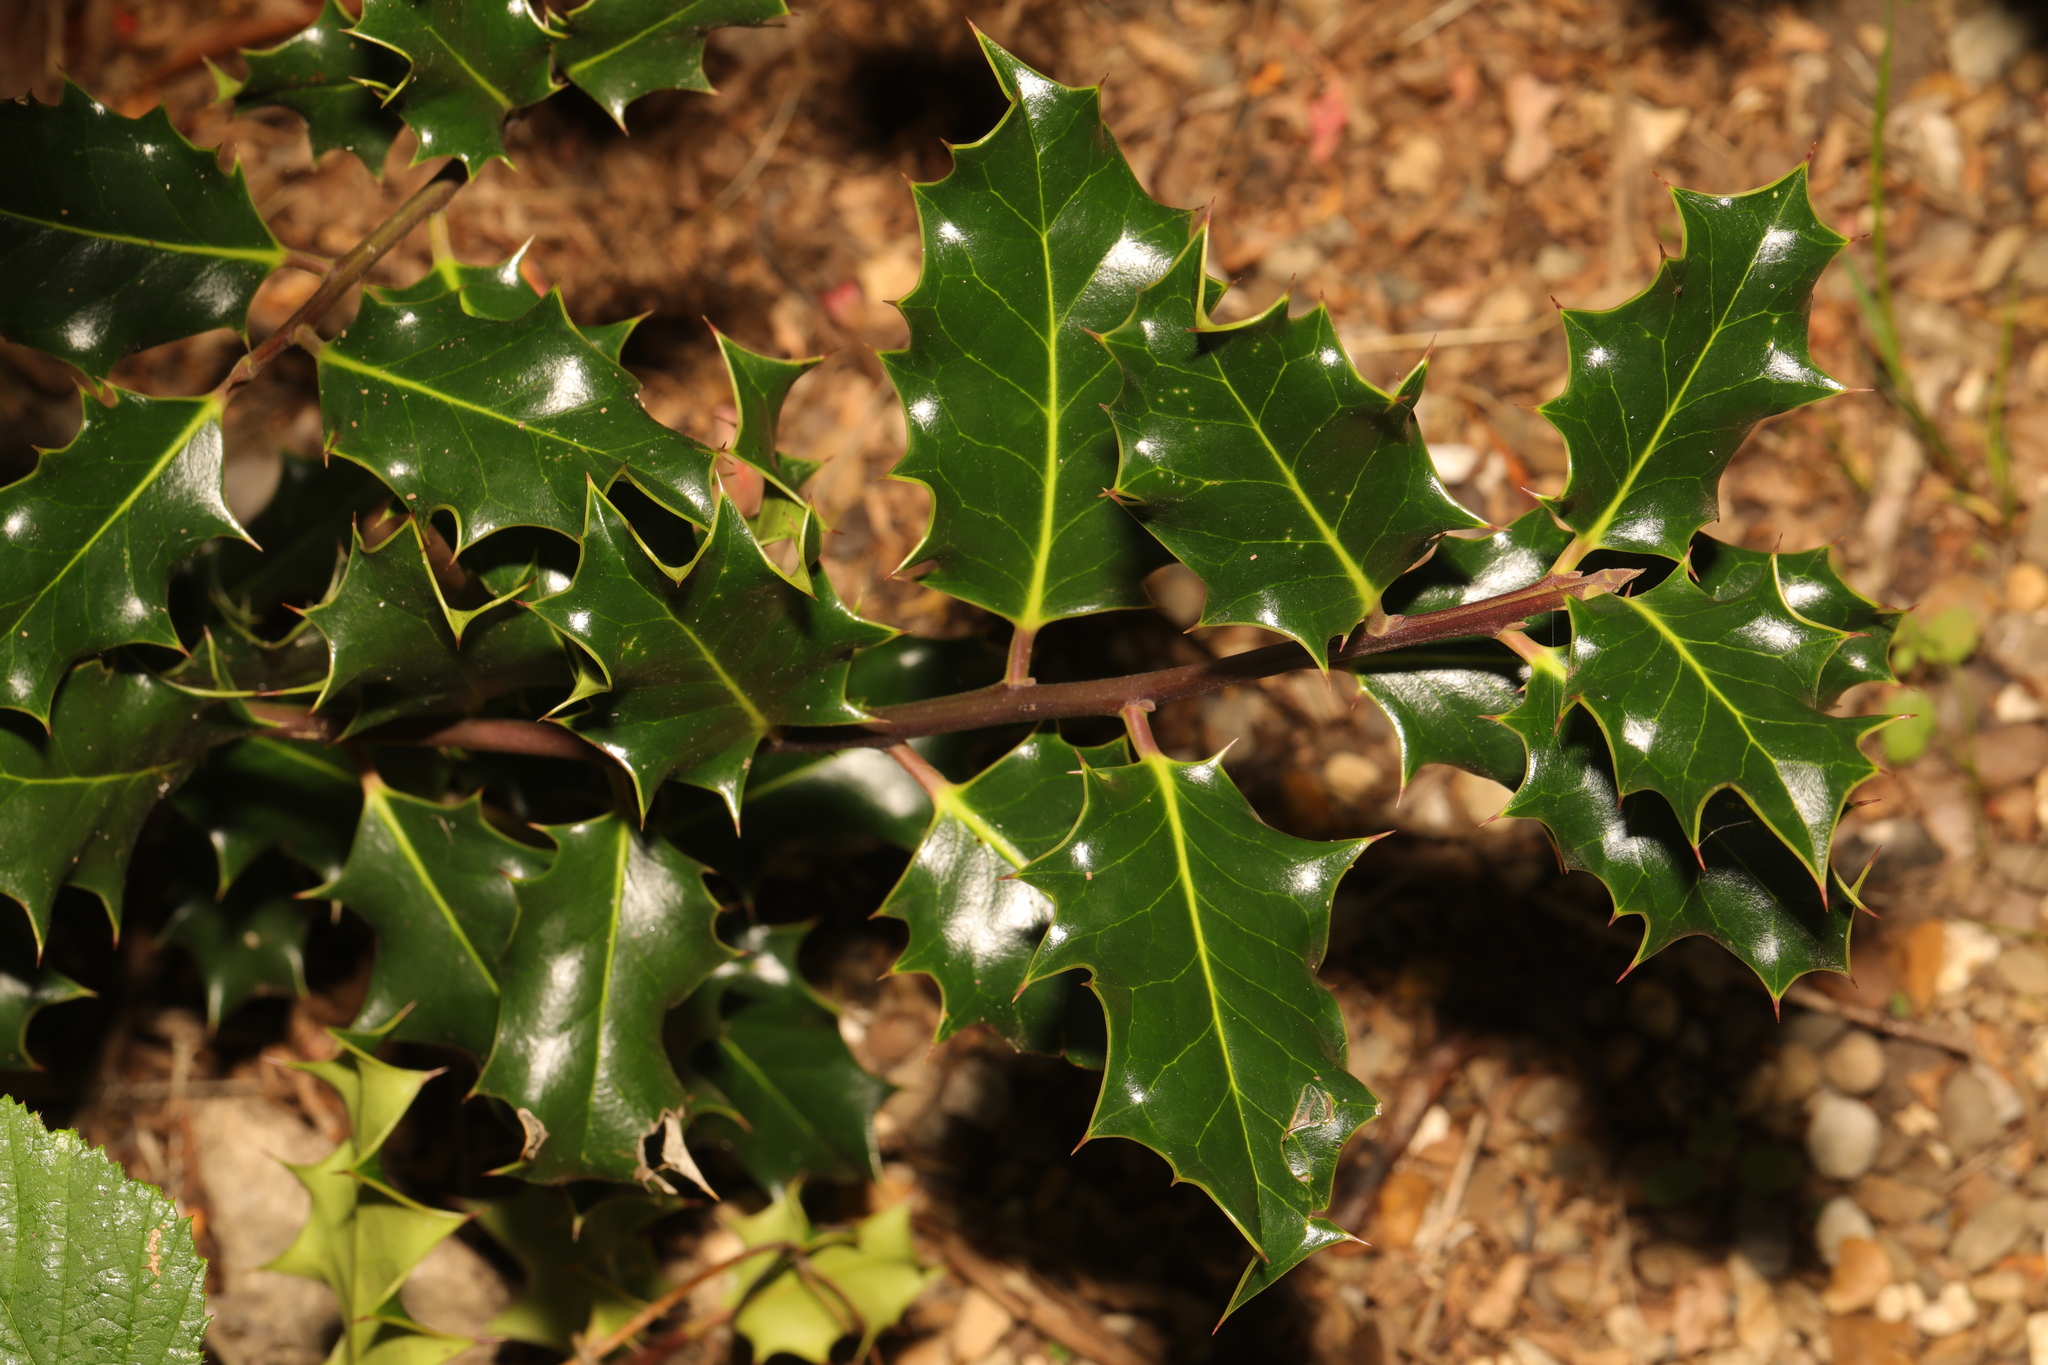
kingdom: Plantae
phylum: Tracheophyta
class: Magnoliopsida
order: Aquifoliales
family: Aquifoliaceae
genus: Ilex
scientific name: Ilex aquifolium
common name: English holly
